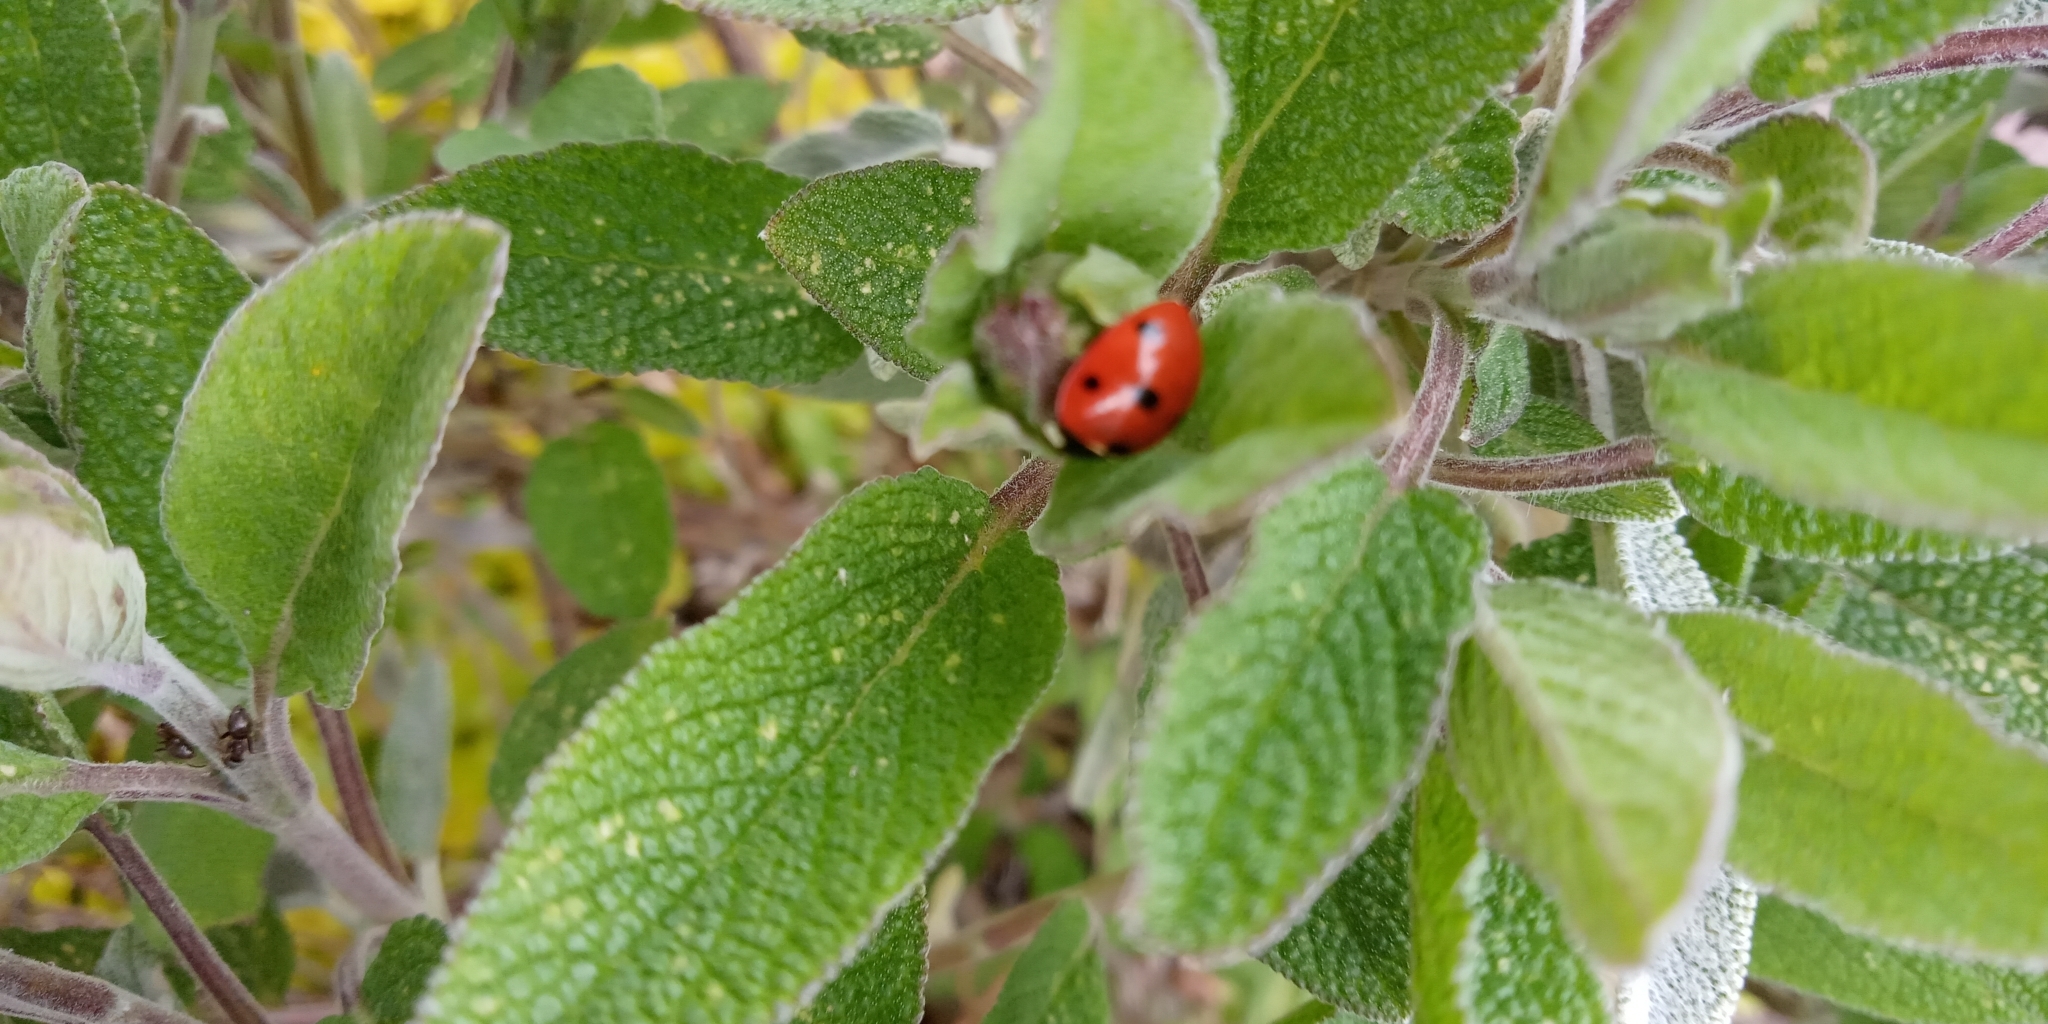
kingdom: Animalia
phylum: Arthropoda
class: Insecta
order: Coleoptera
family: Coccinellidae
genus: Coccinella
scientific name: Coccinella septempunctata
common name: Sevenspotted lady beetle
